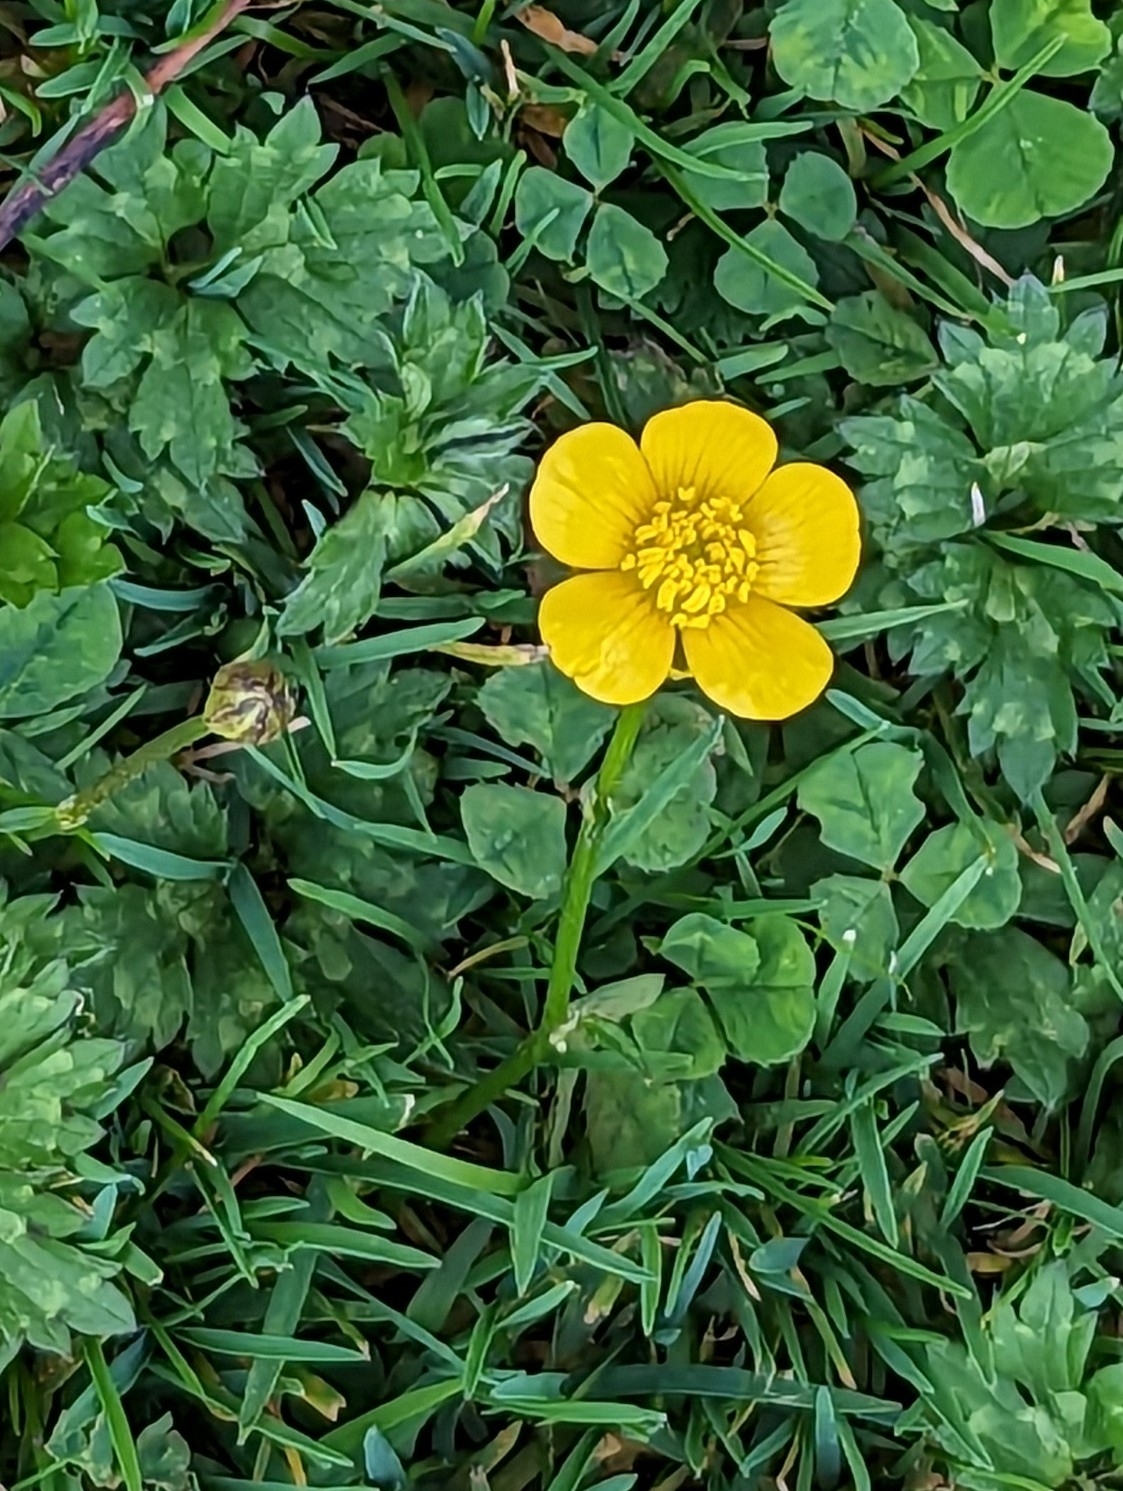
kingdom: Plantae
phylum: Tracheophyta
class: Magnoliopsida
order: Ranunculales
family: Ranunculaceae
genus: Ranunculus
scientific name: Ranunculus repens
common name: Creeping buttercup
